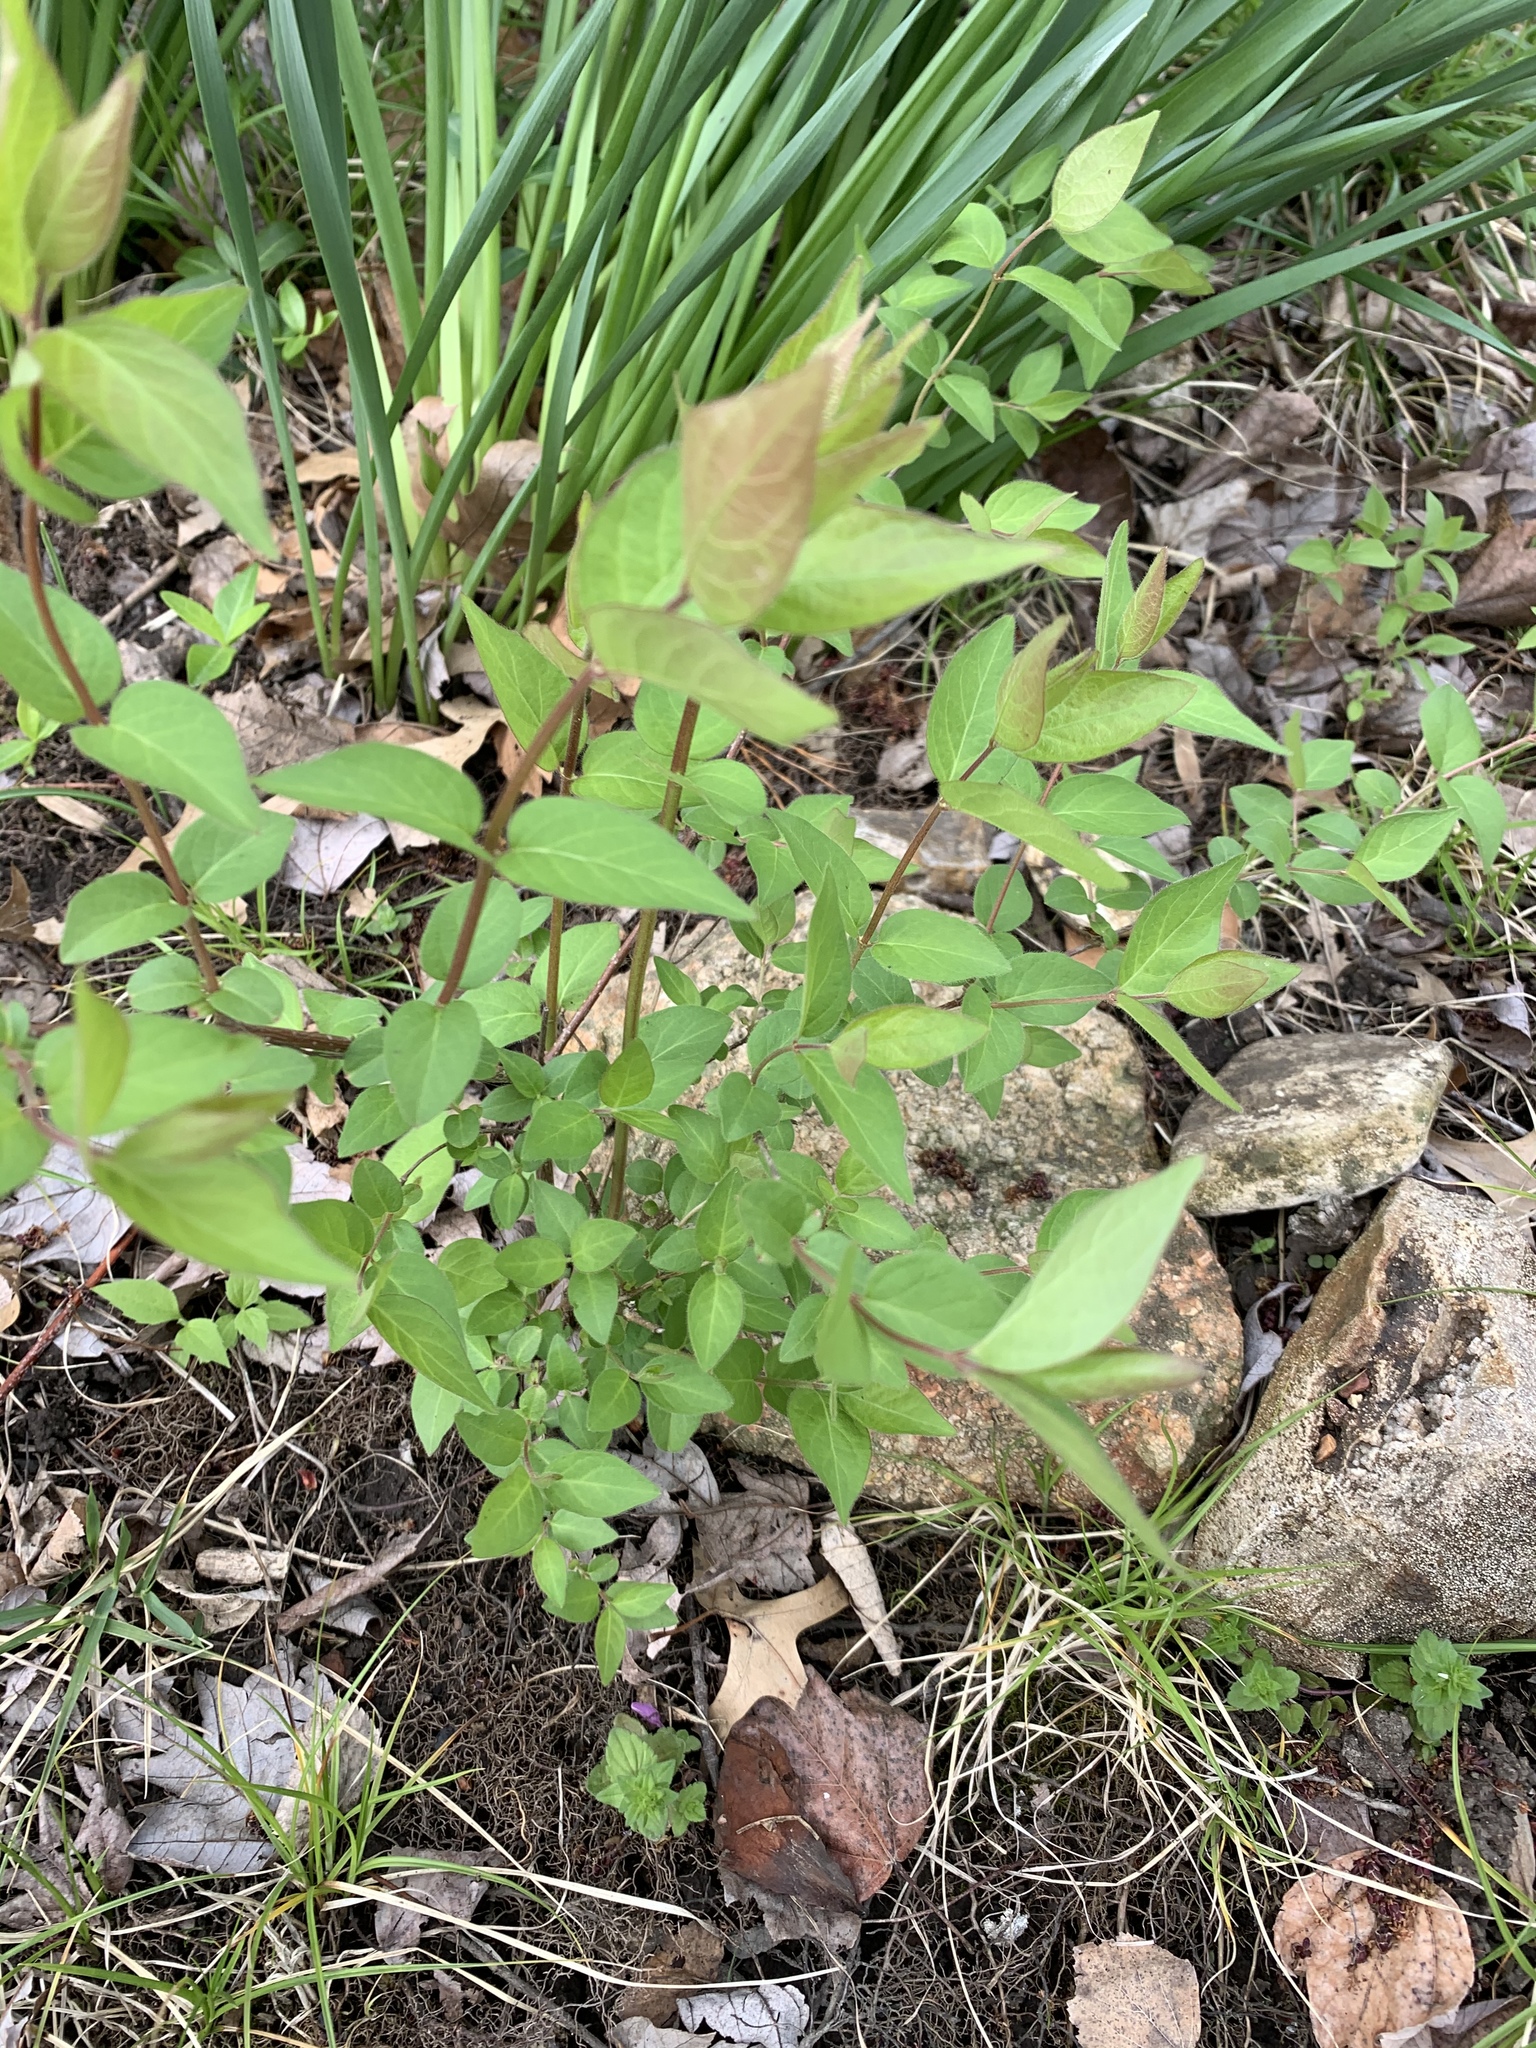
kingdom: Plantae
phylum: Tracheophyta
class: Magnoliopsida
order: Dipsacales
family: Caprifoliaceae
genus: Lonicera
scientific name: Lonicera maackii
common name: Amur honeysuckle
